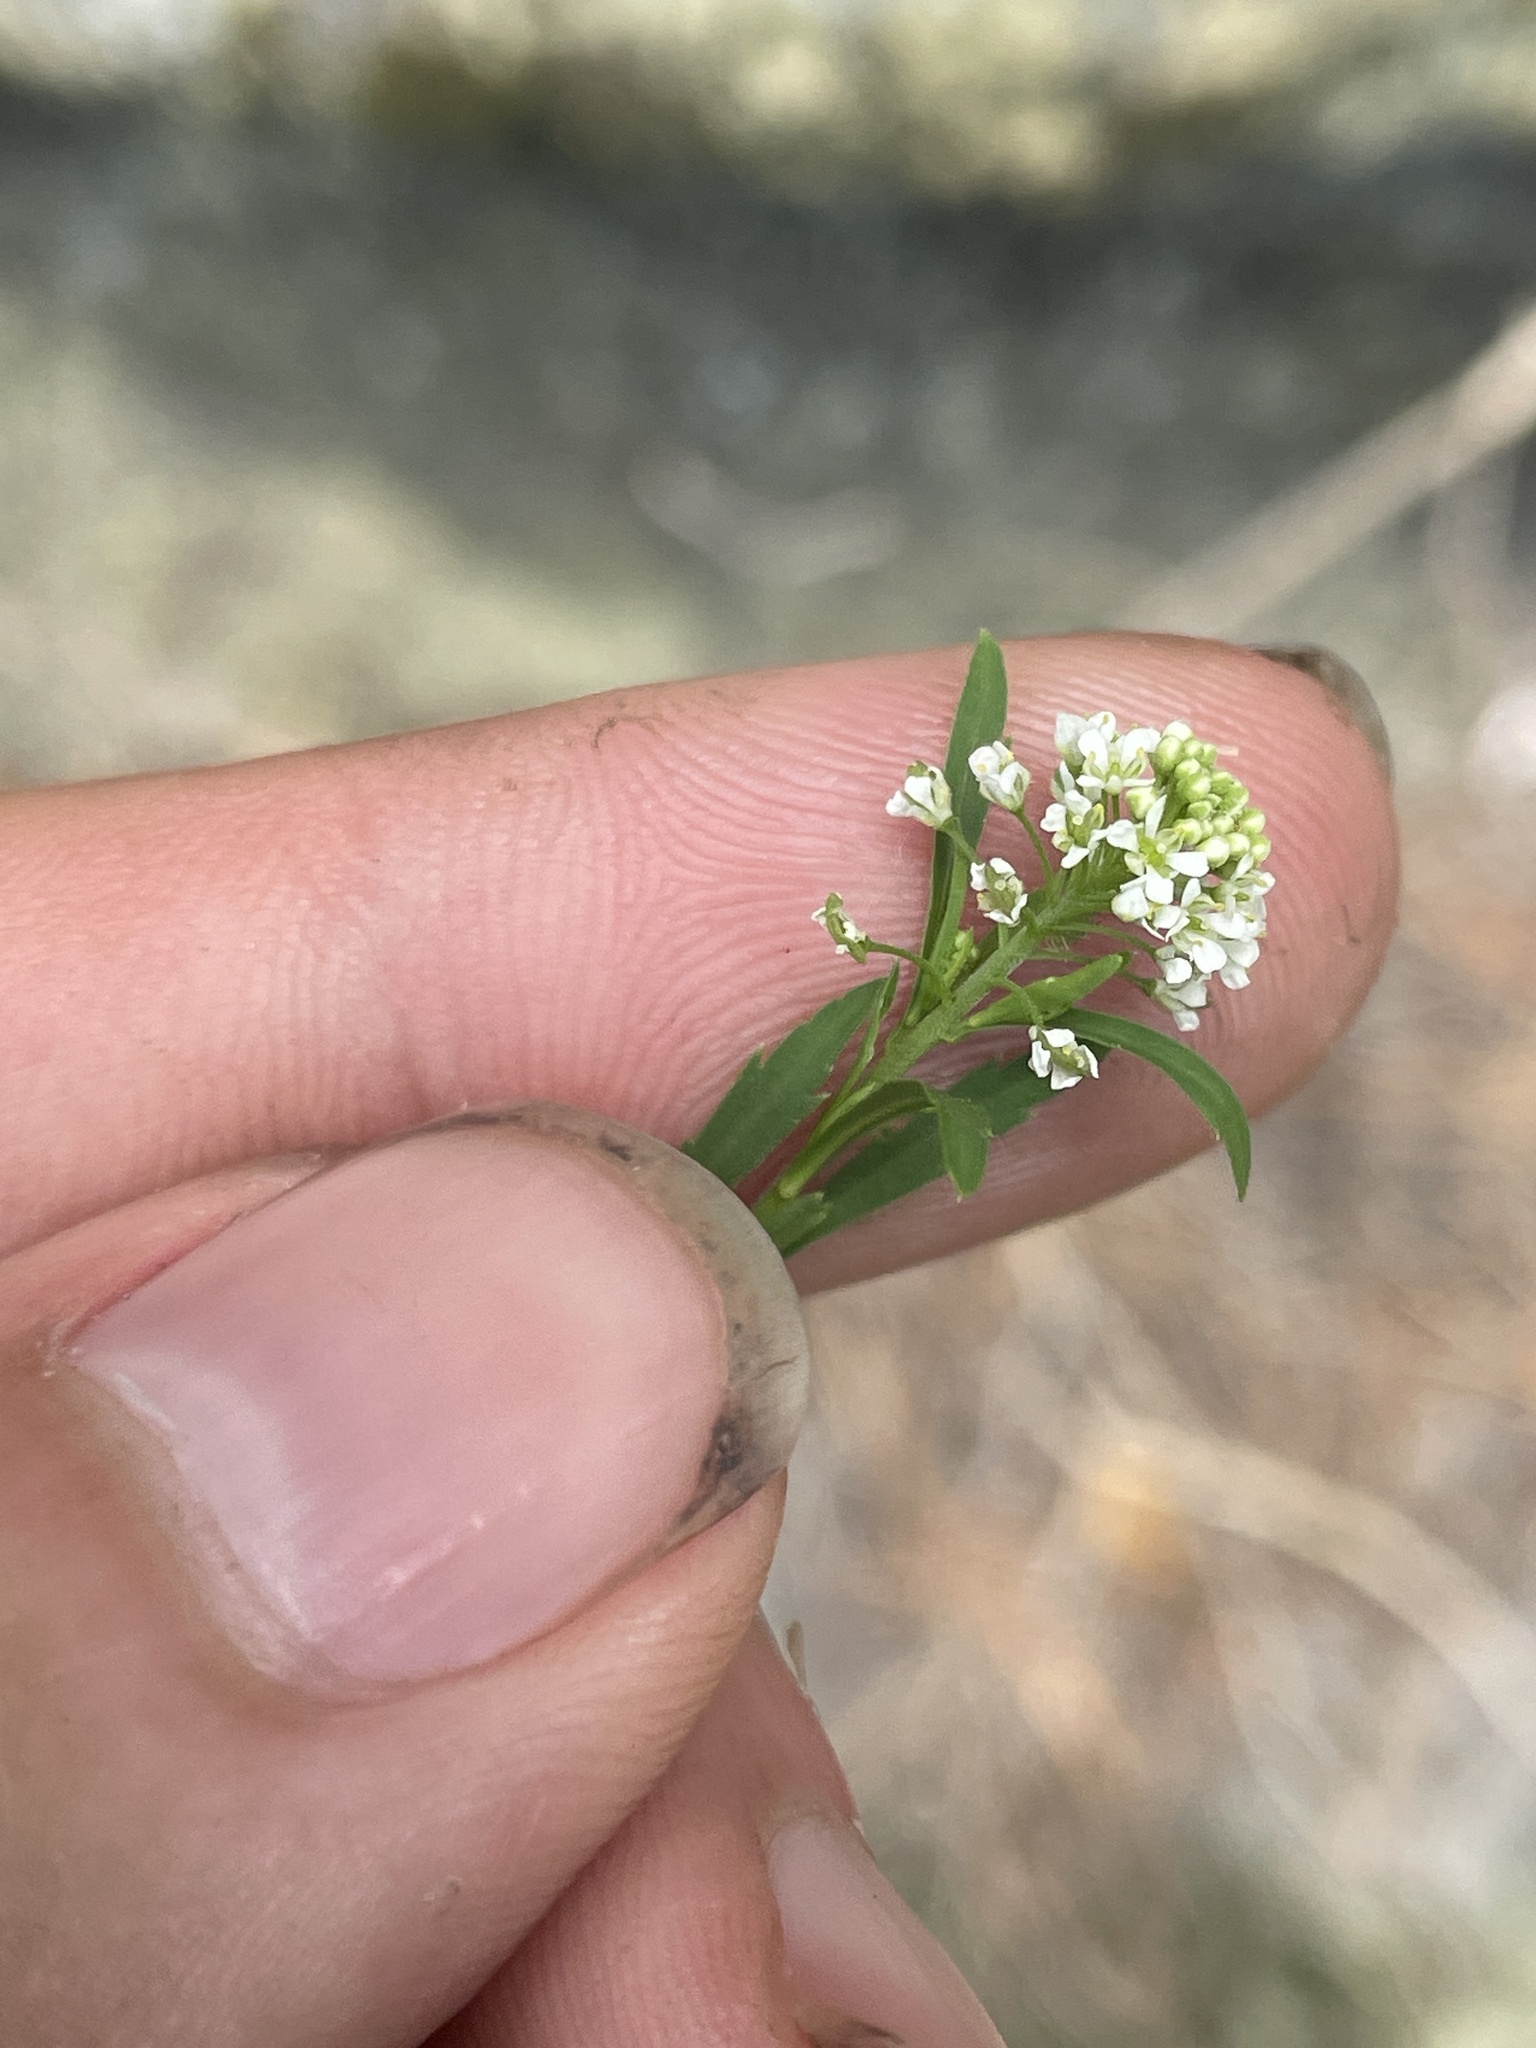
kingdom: Plantae
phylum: Tracheophyta
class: Magnoliopsida
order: Brassicales
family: Brassicaceae
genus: Lepidium
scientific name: Lepidium virginicum
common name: Least pepperwort
